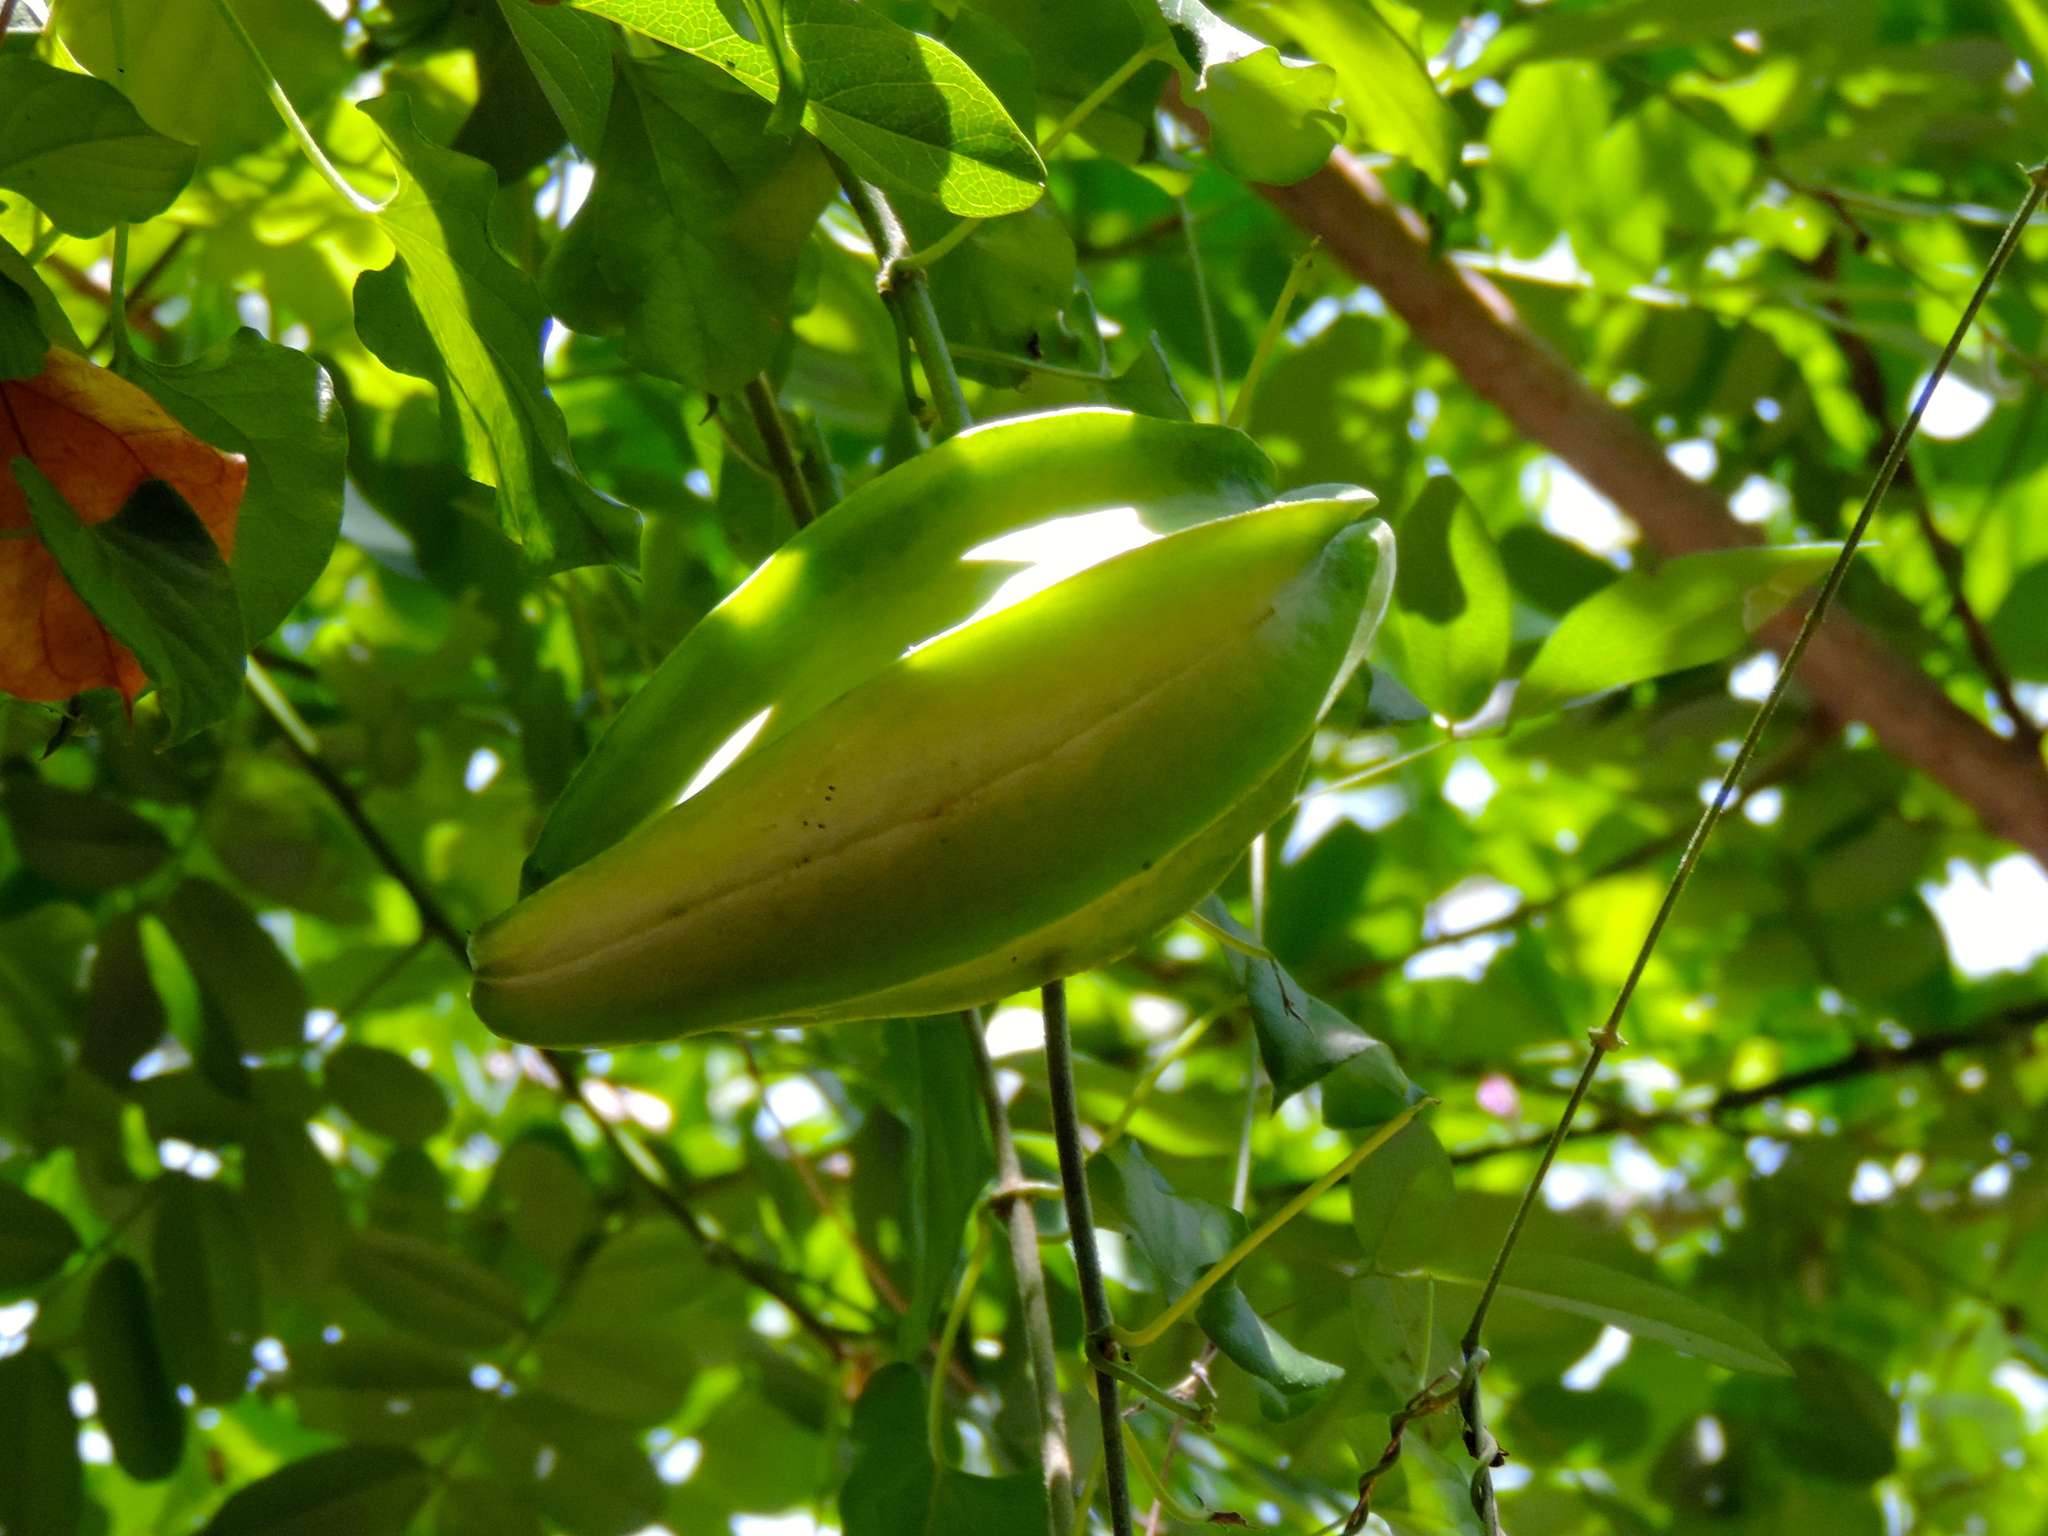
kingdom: Plantae
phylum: Tracheophyta
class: Magnoliopsida
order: Gentianales
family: Apocynaceae
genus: Gonolobus
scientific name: Gonolobus naturalistae
